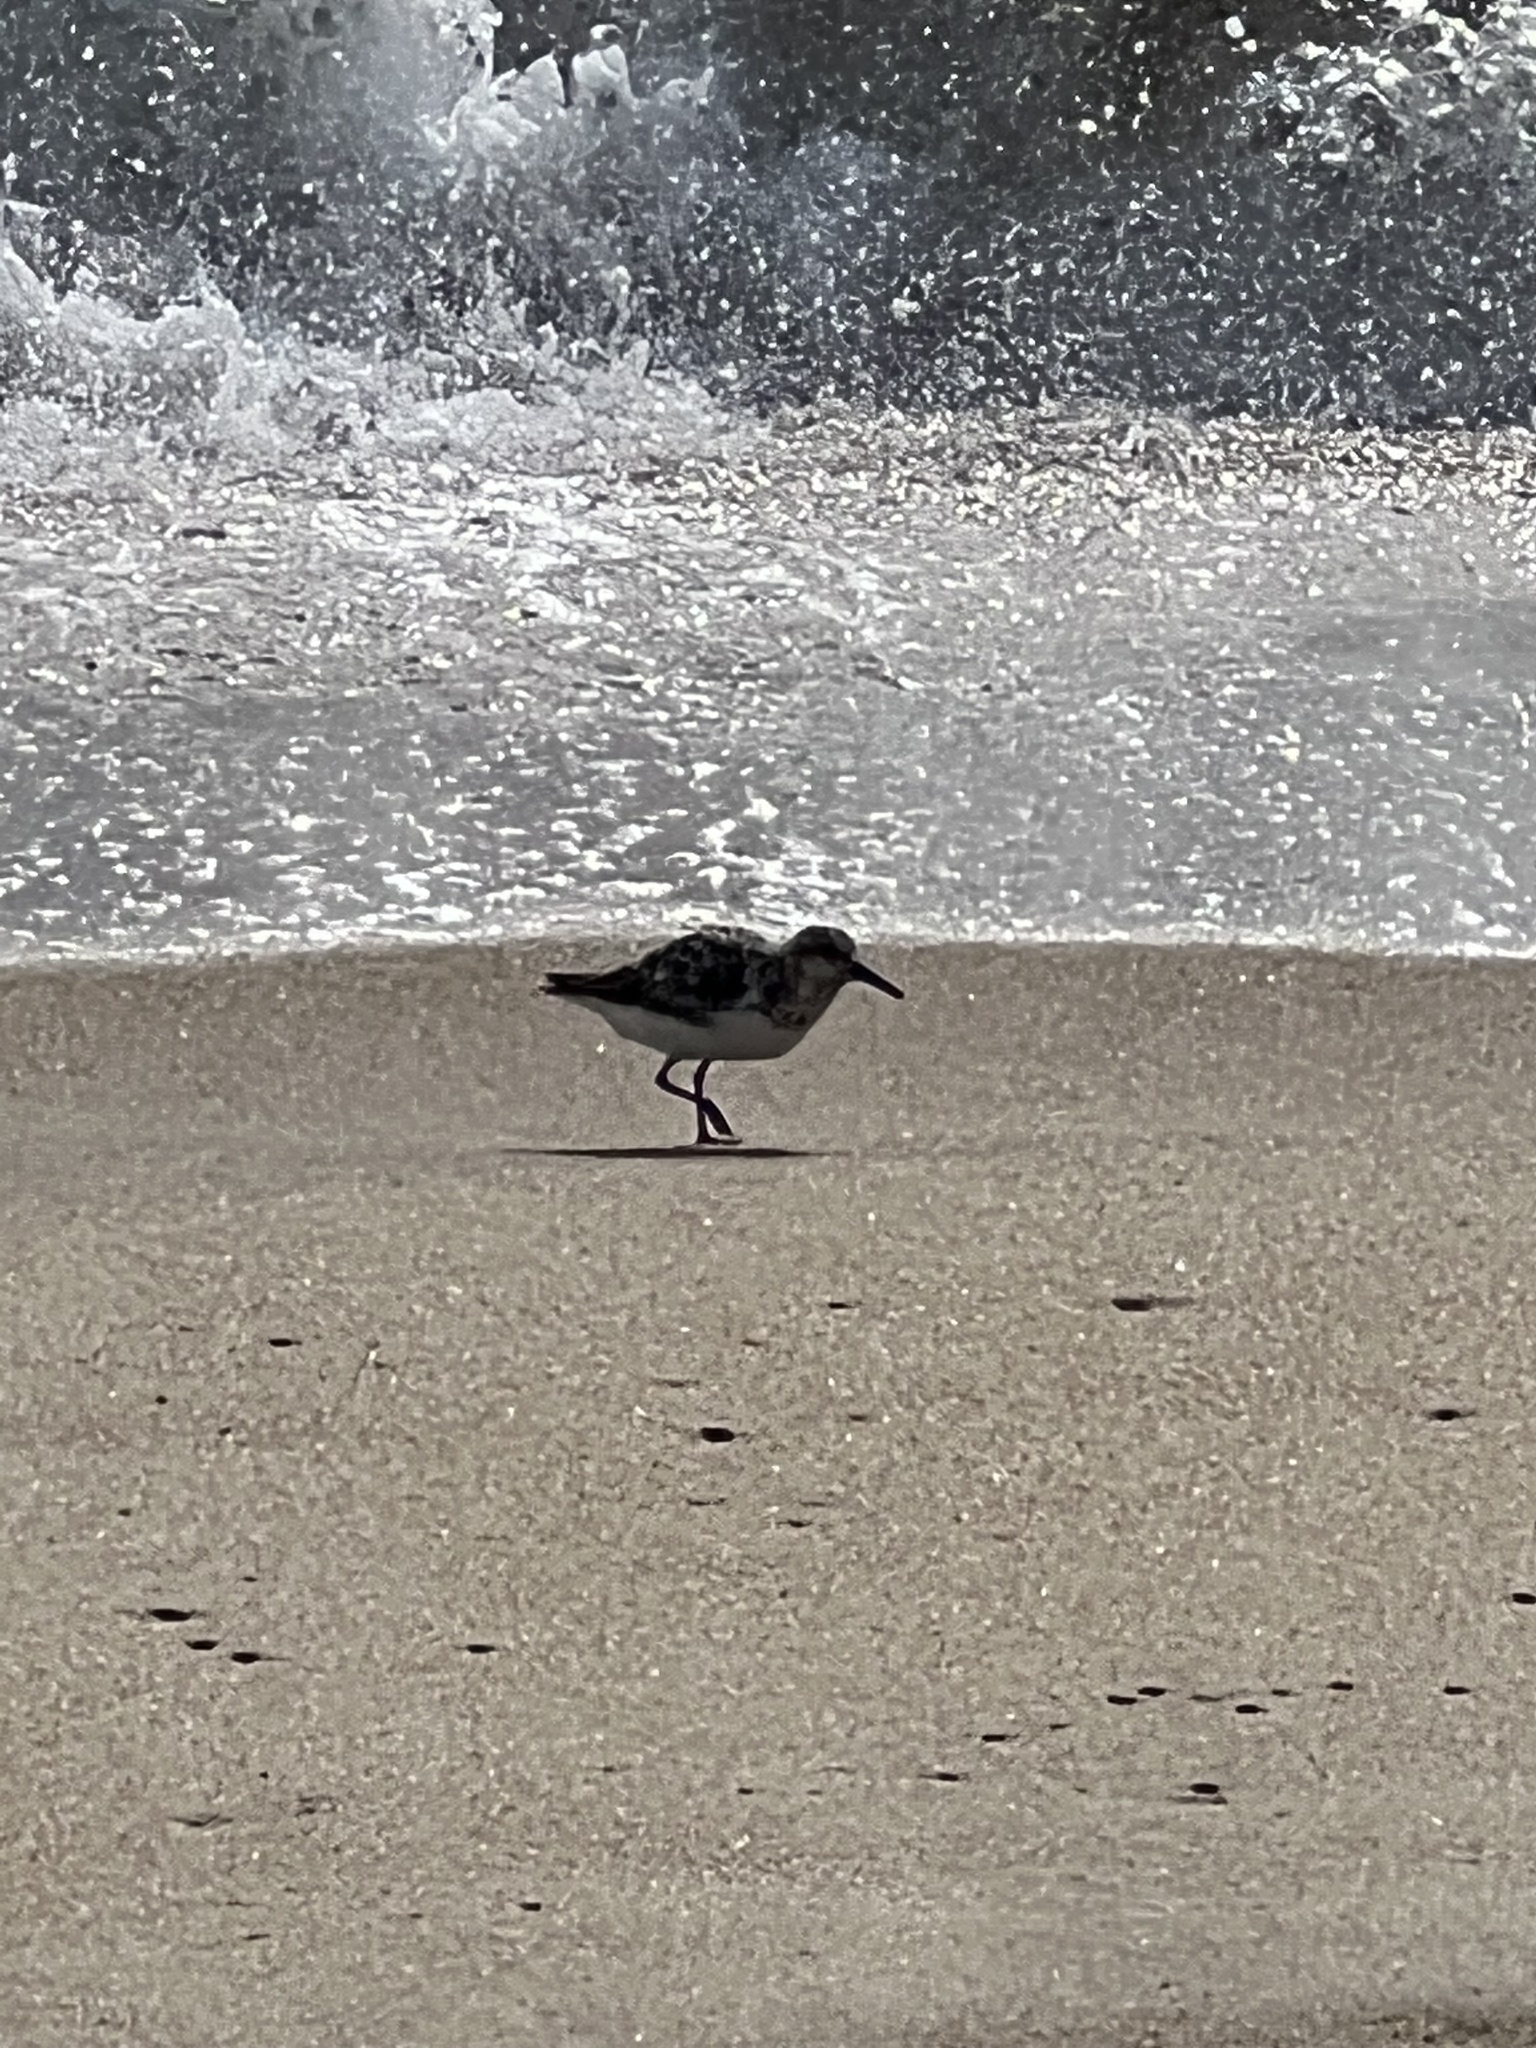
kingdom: Animalia
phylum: Chordata
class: Aves
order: Charadriiformes
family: Scolopacidae
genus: Calidris
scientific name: Calidris alba
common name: Sanderling
